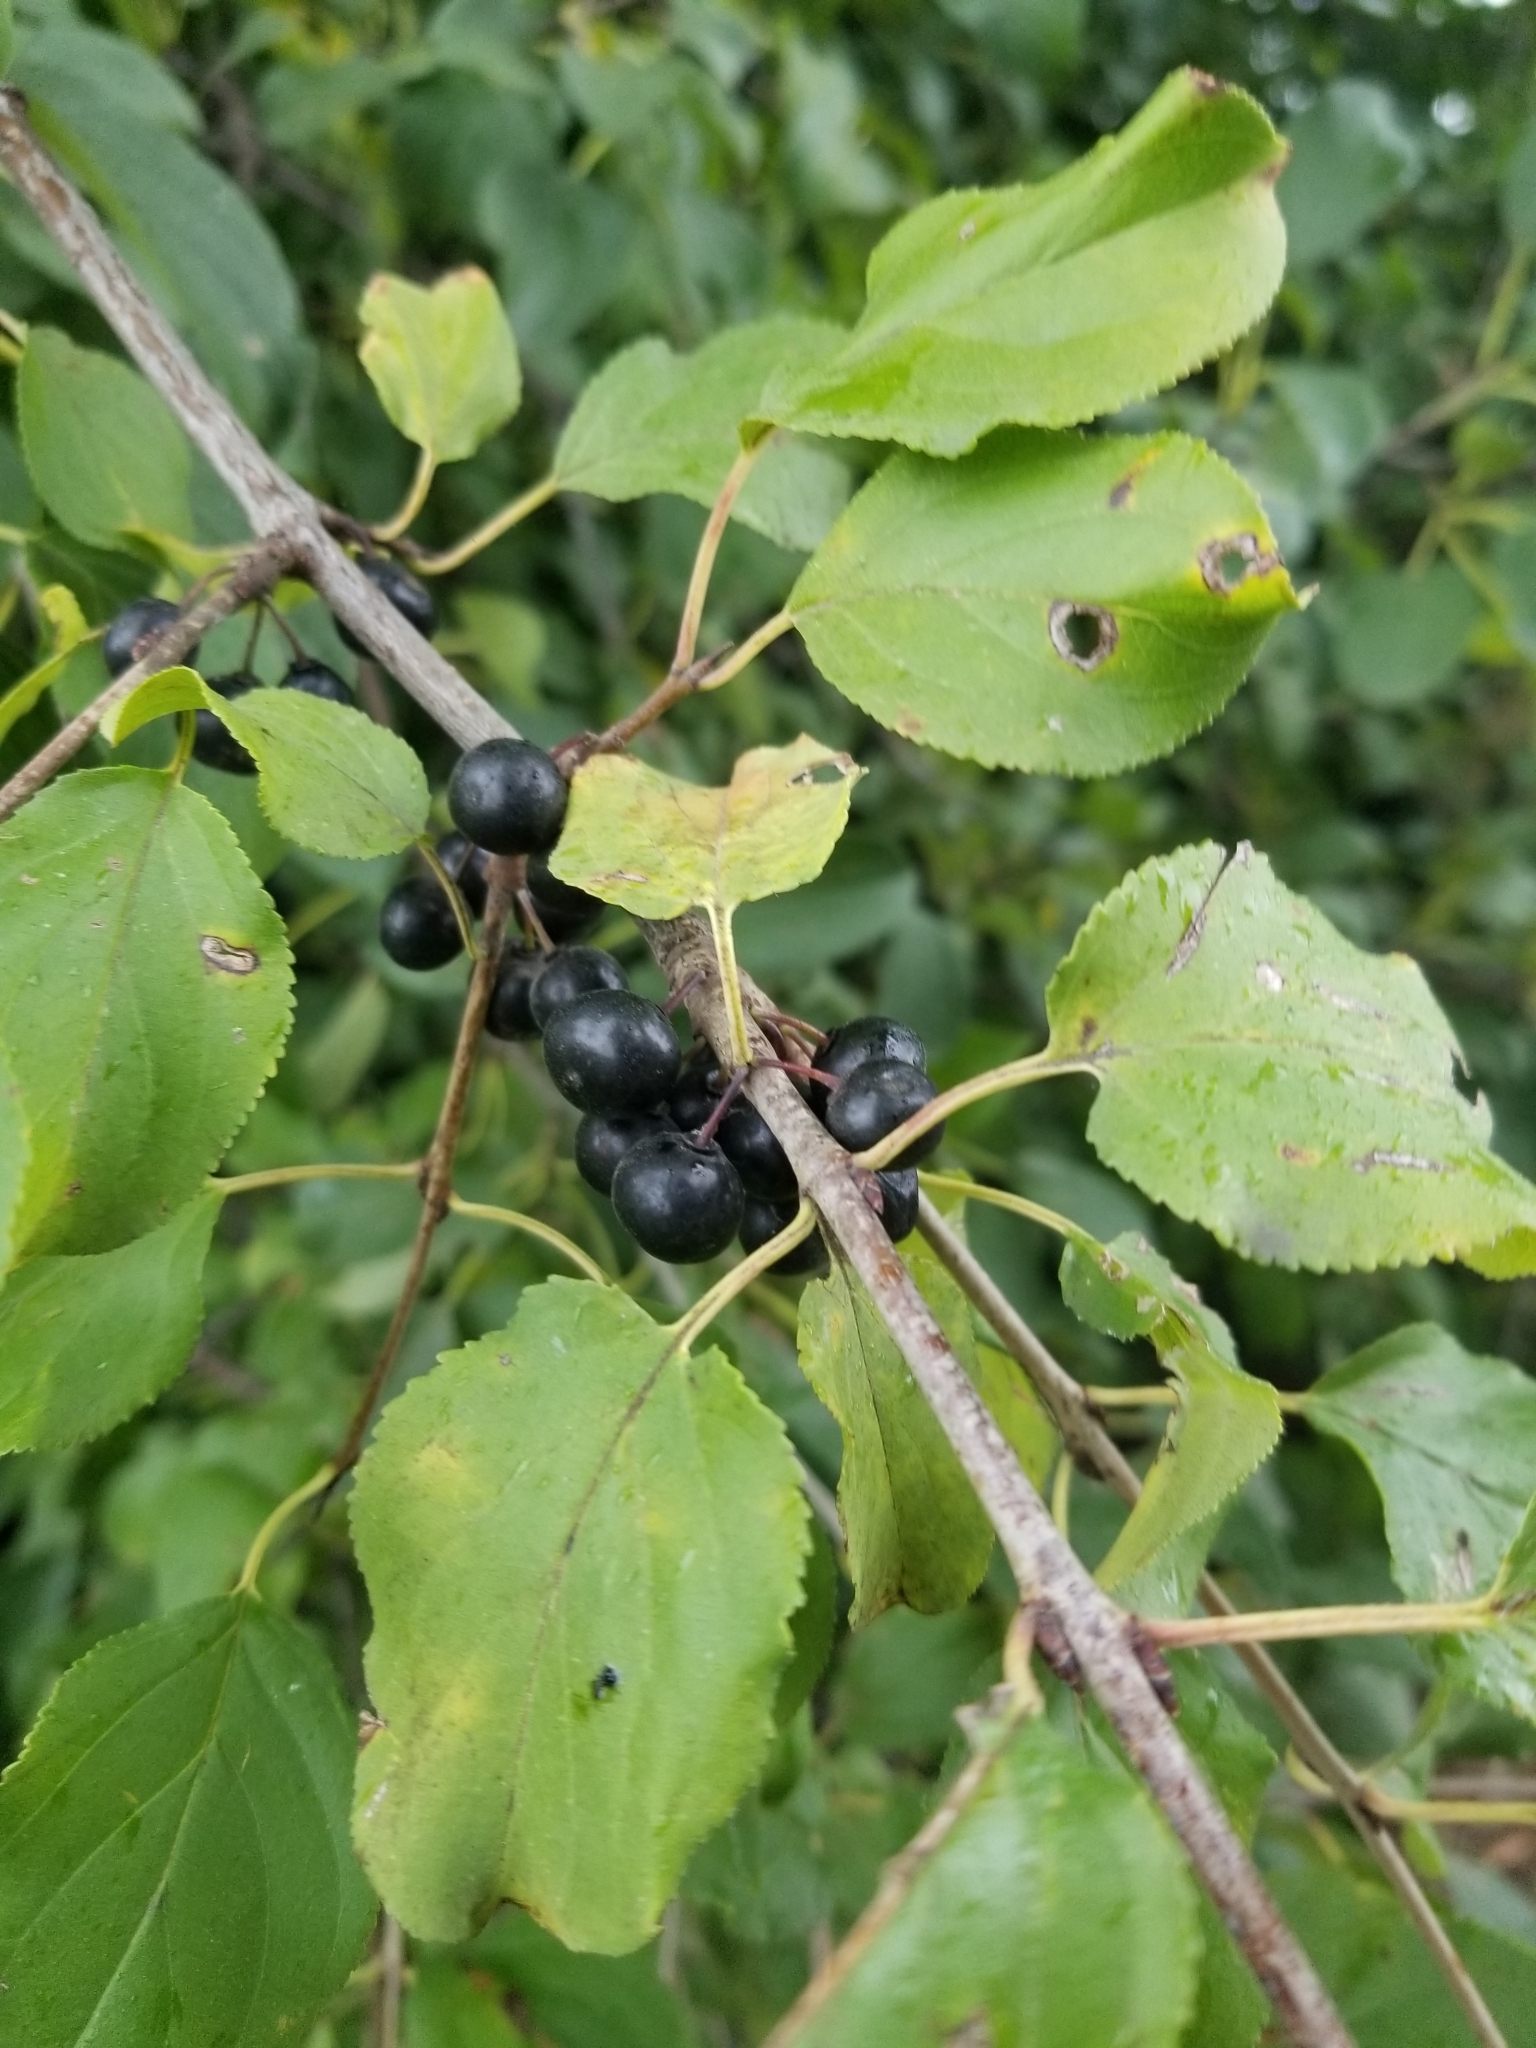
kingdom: Plantae
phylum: Tracheophyta
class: Magnoliopsida
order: Rosales
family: Rhamnaceae
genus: Rhamnus
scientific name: Rhamnus cathartica
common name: Common buckthorn
